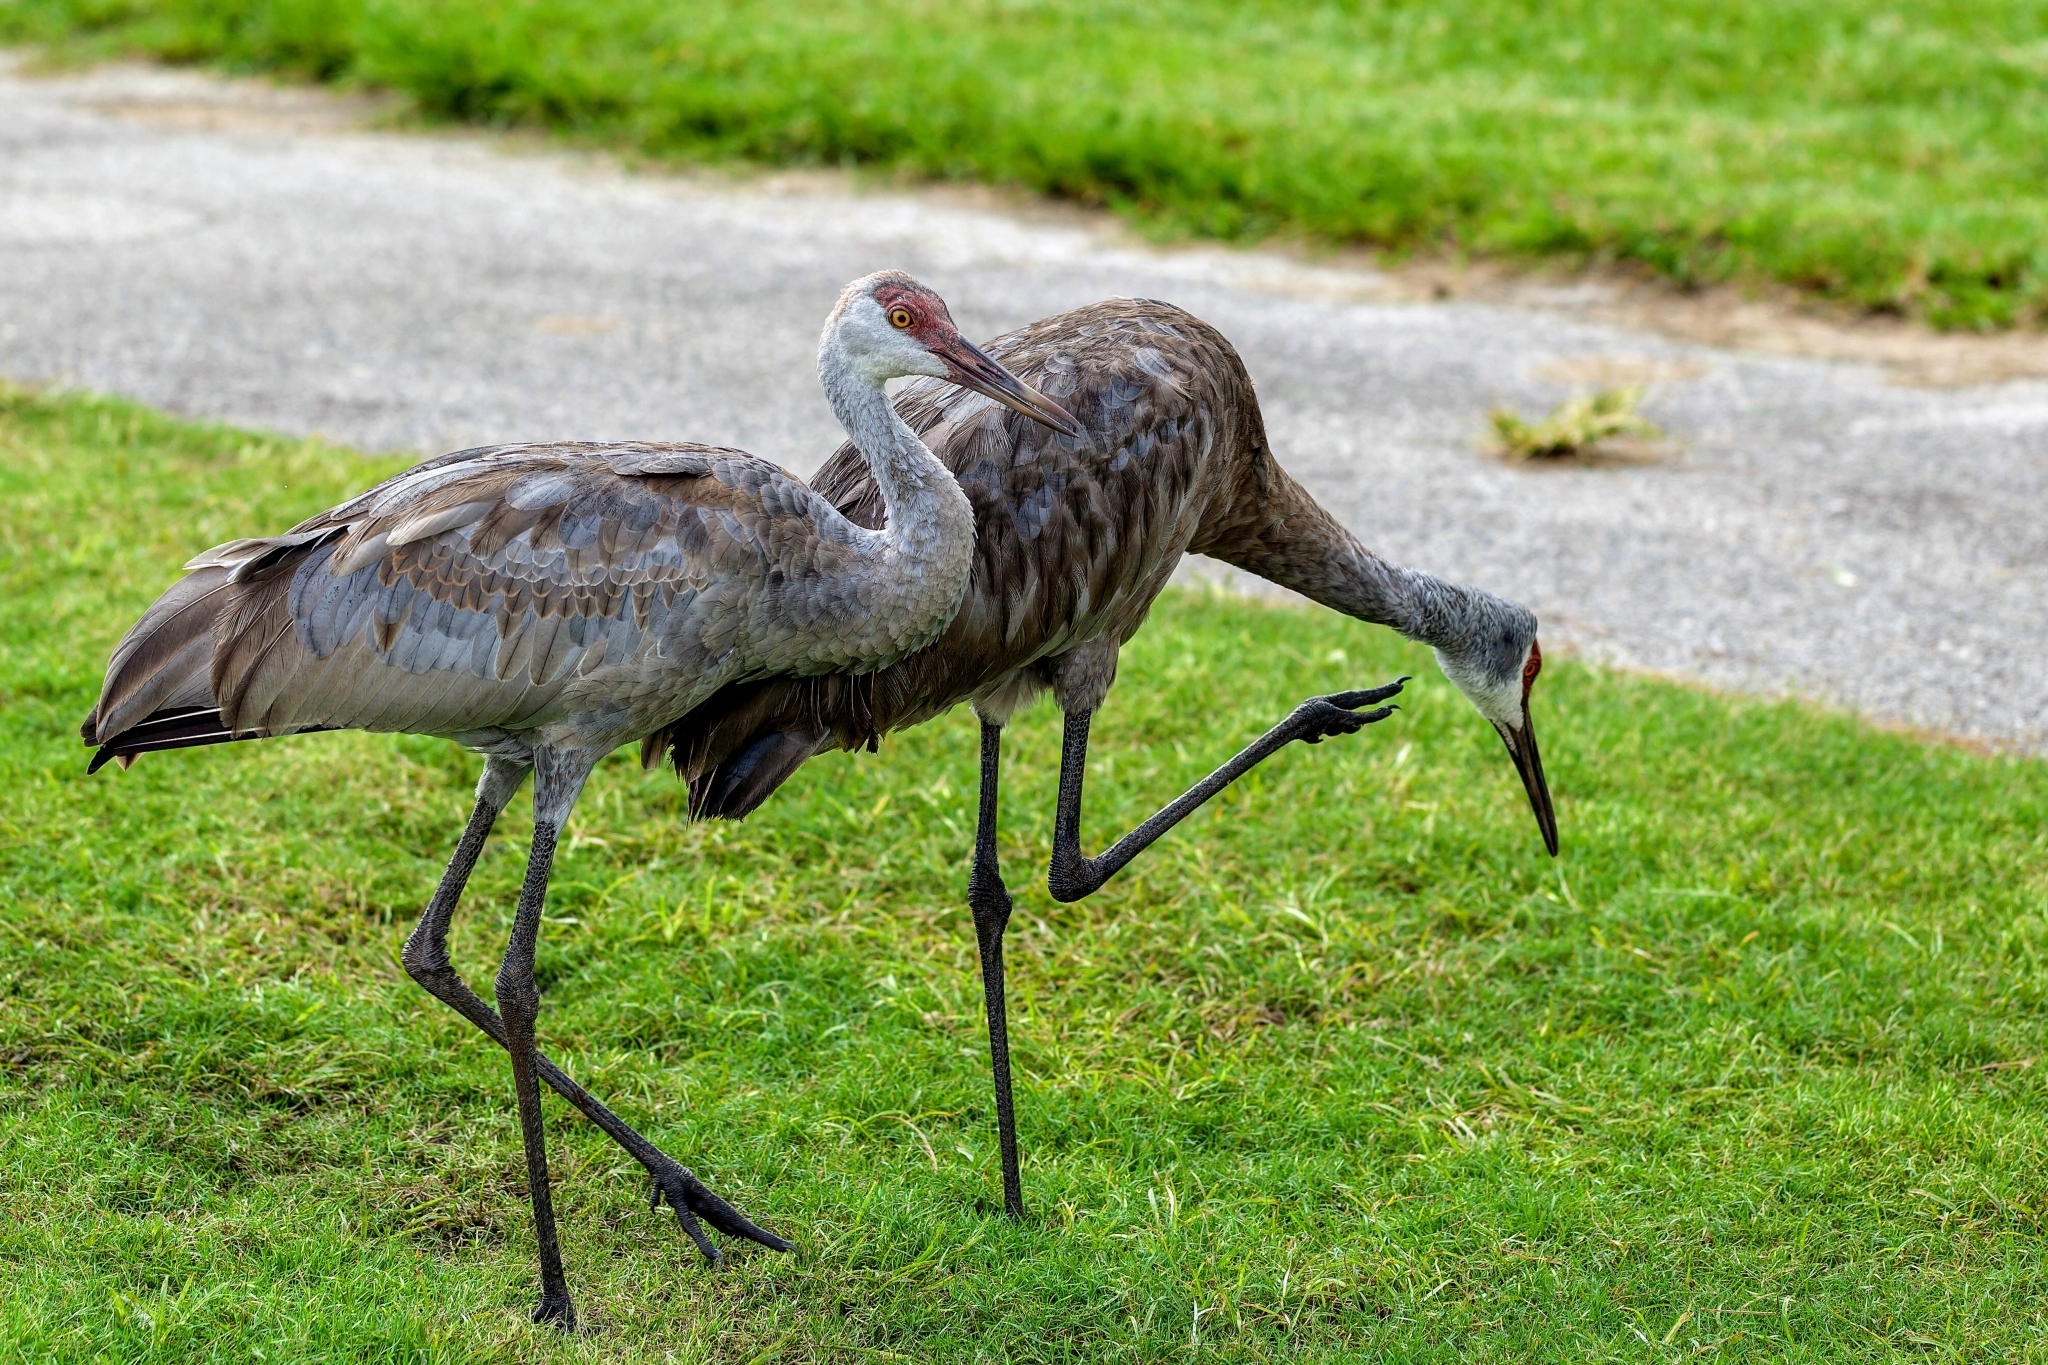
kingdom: Animalia
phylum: Chordata
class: Aves
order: Gruiformes
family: Gruidae
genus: Grus
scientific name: Grus canadensis
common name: Sandhill crane
